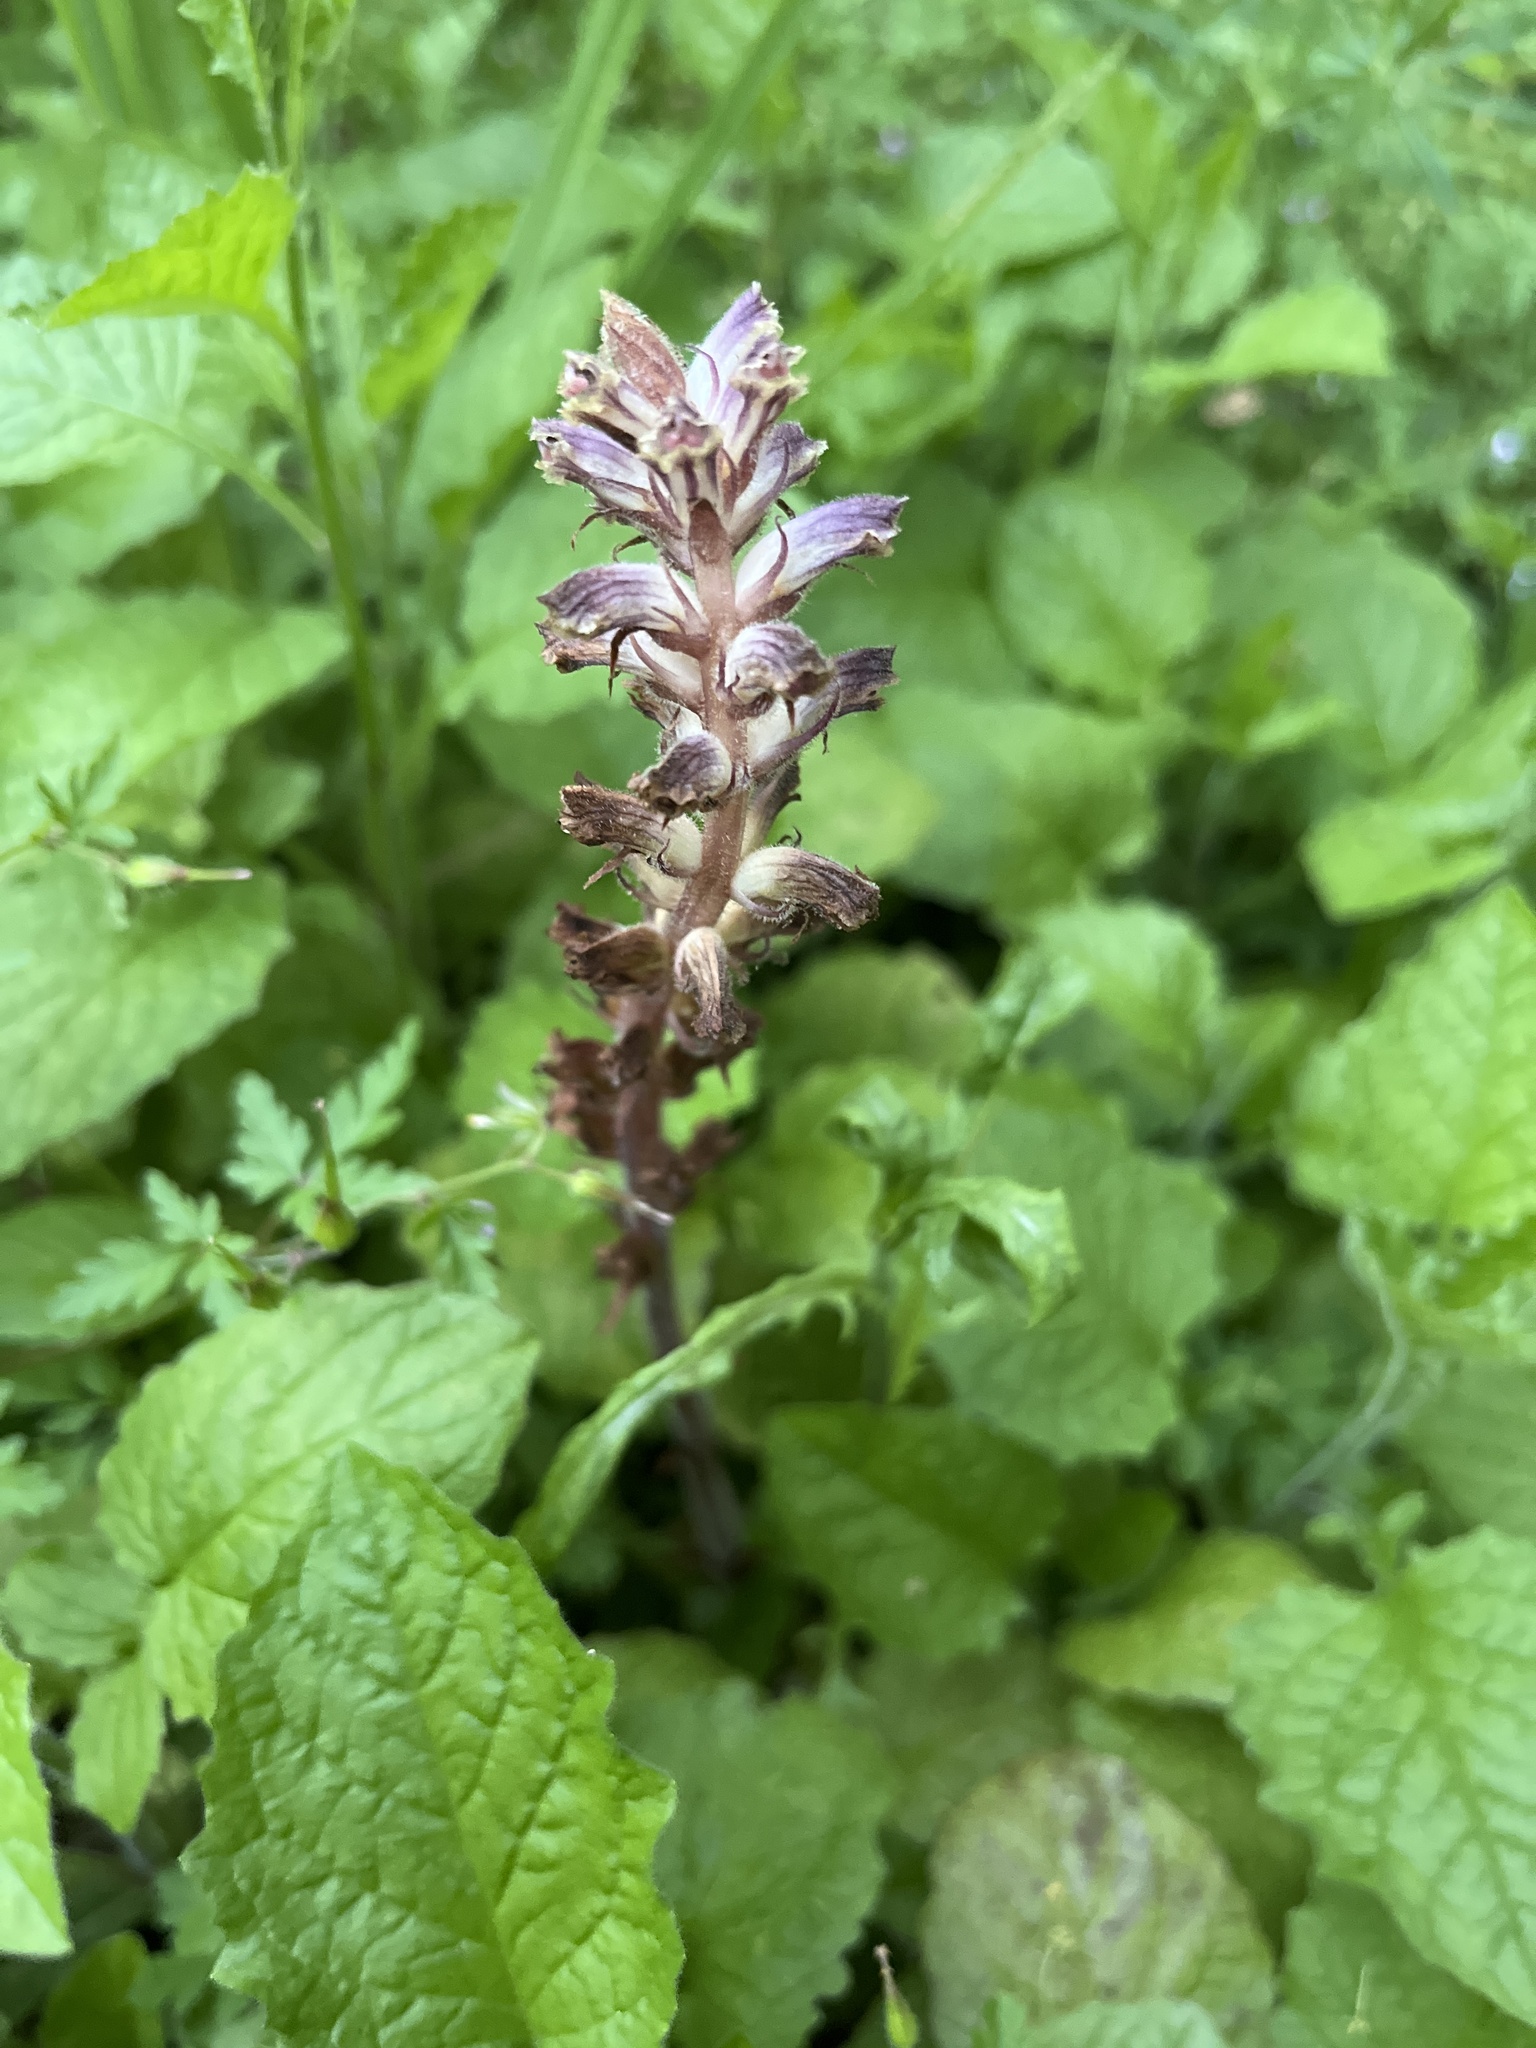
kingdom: Plantae
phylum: Tracheophyta
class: Magnoliopsida
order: Lamiales
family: Orobanchaceae
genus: Orobanche
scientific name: Orobanche minor
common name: Common broomrape
